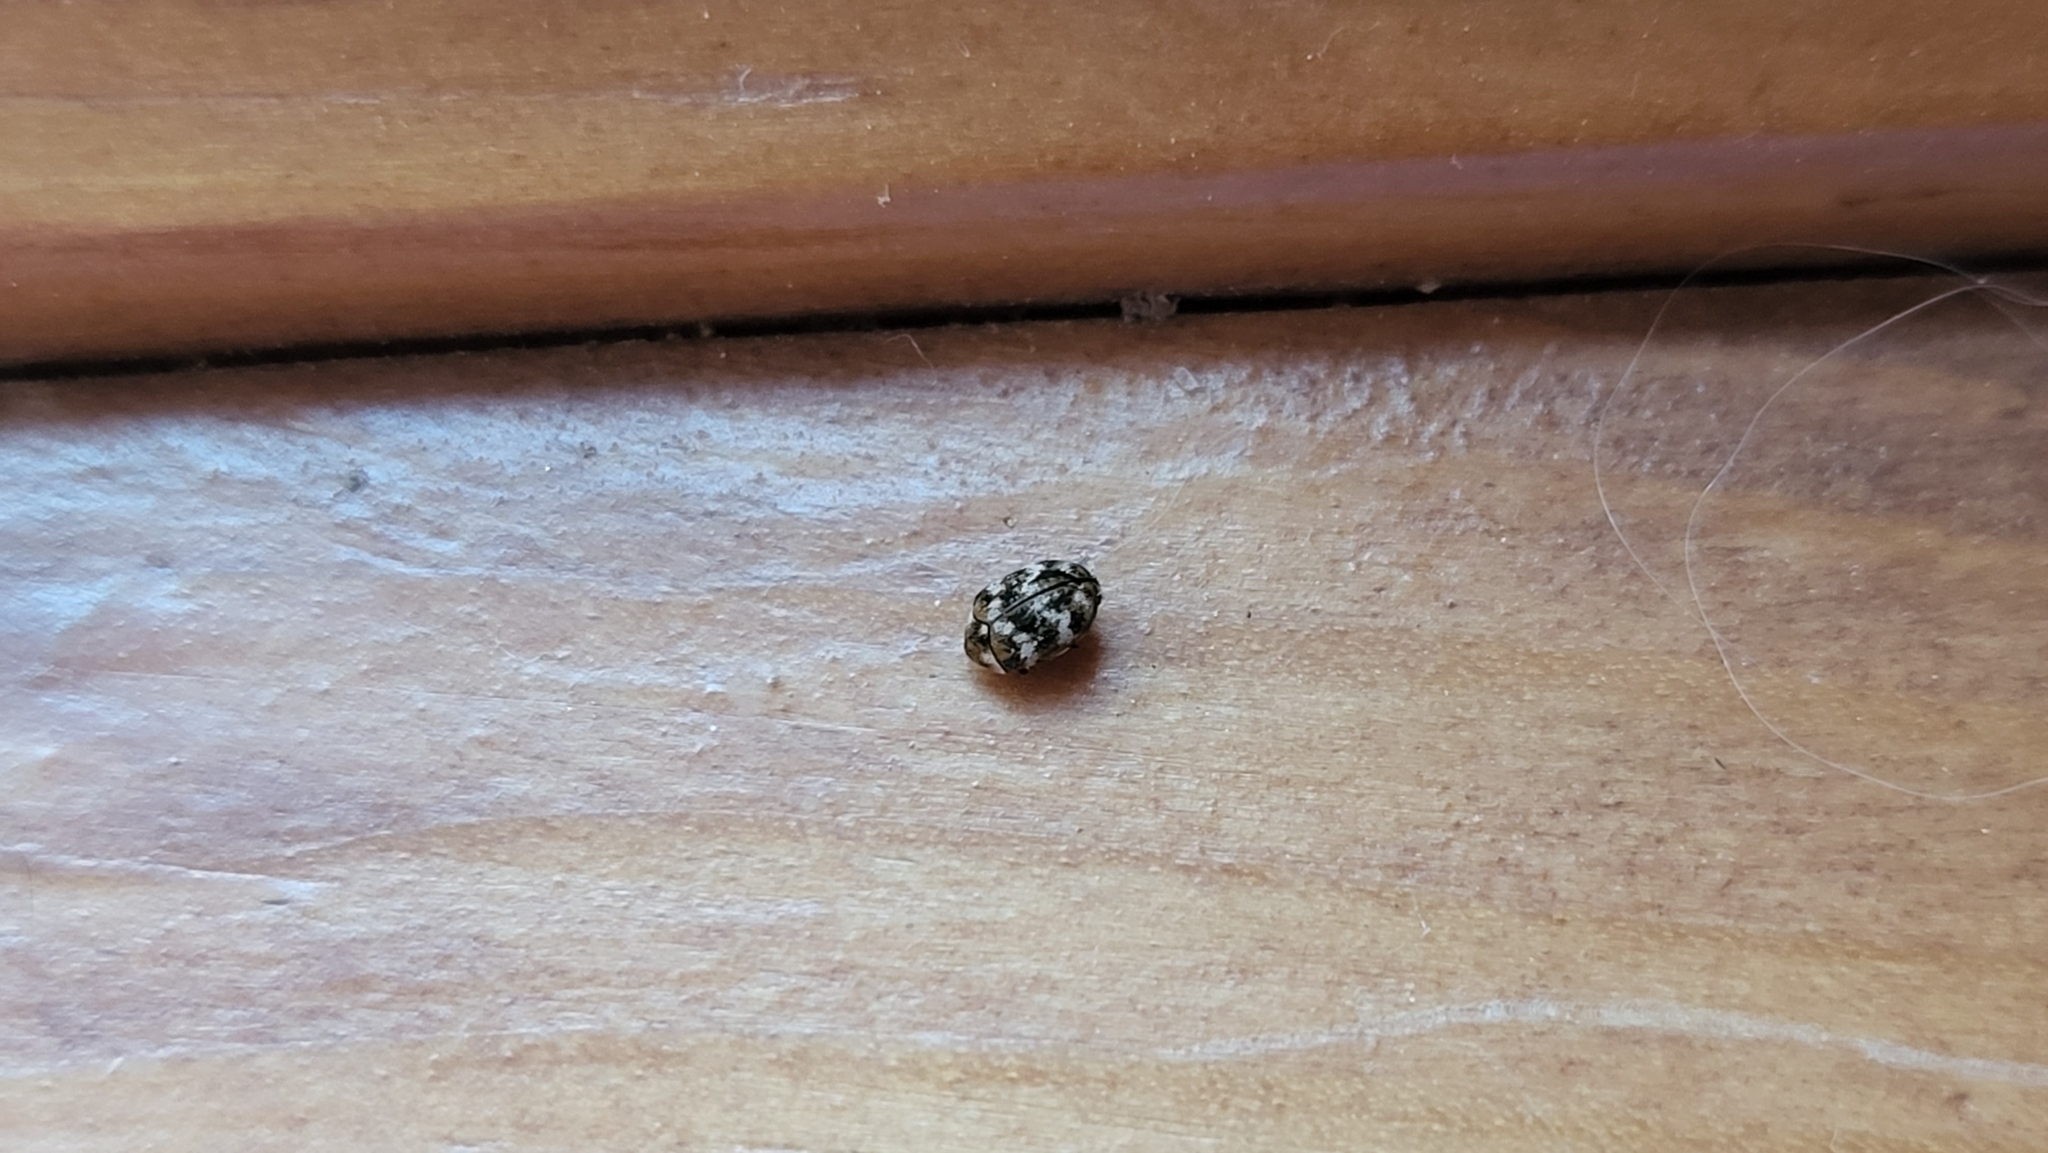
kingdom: Animalia
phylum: Arthropoda
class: Insecta
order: Coleoptera
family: Dermestidae
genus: Anthrenus
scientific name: Anthrenus verbasci
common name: Varied carpet beetle
